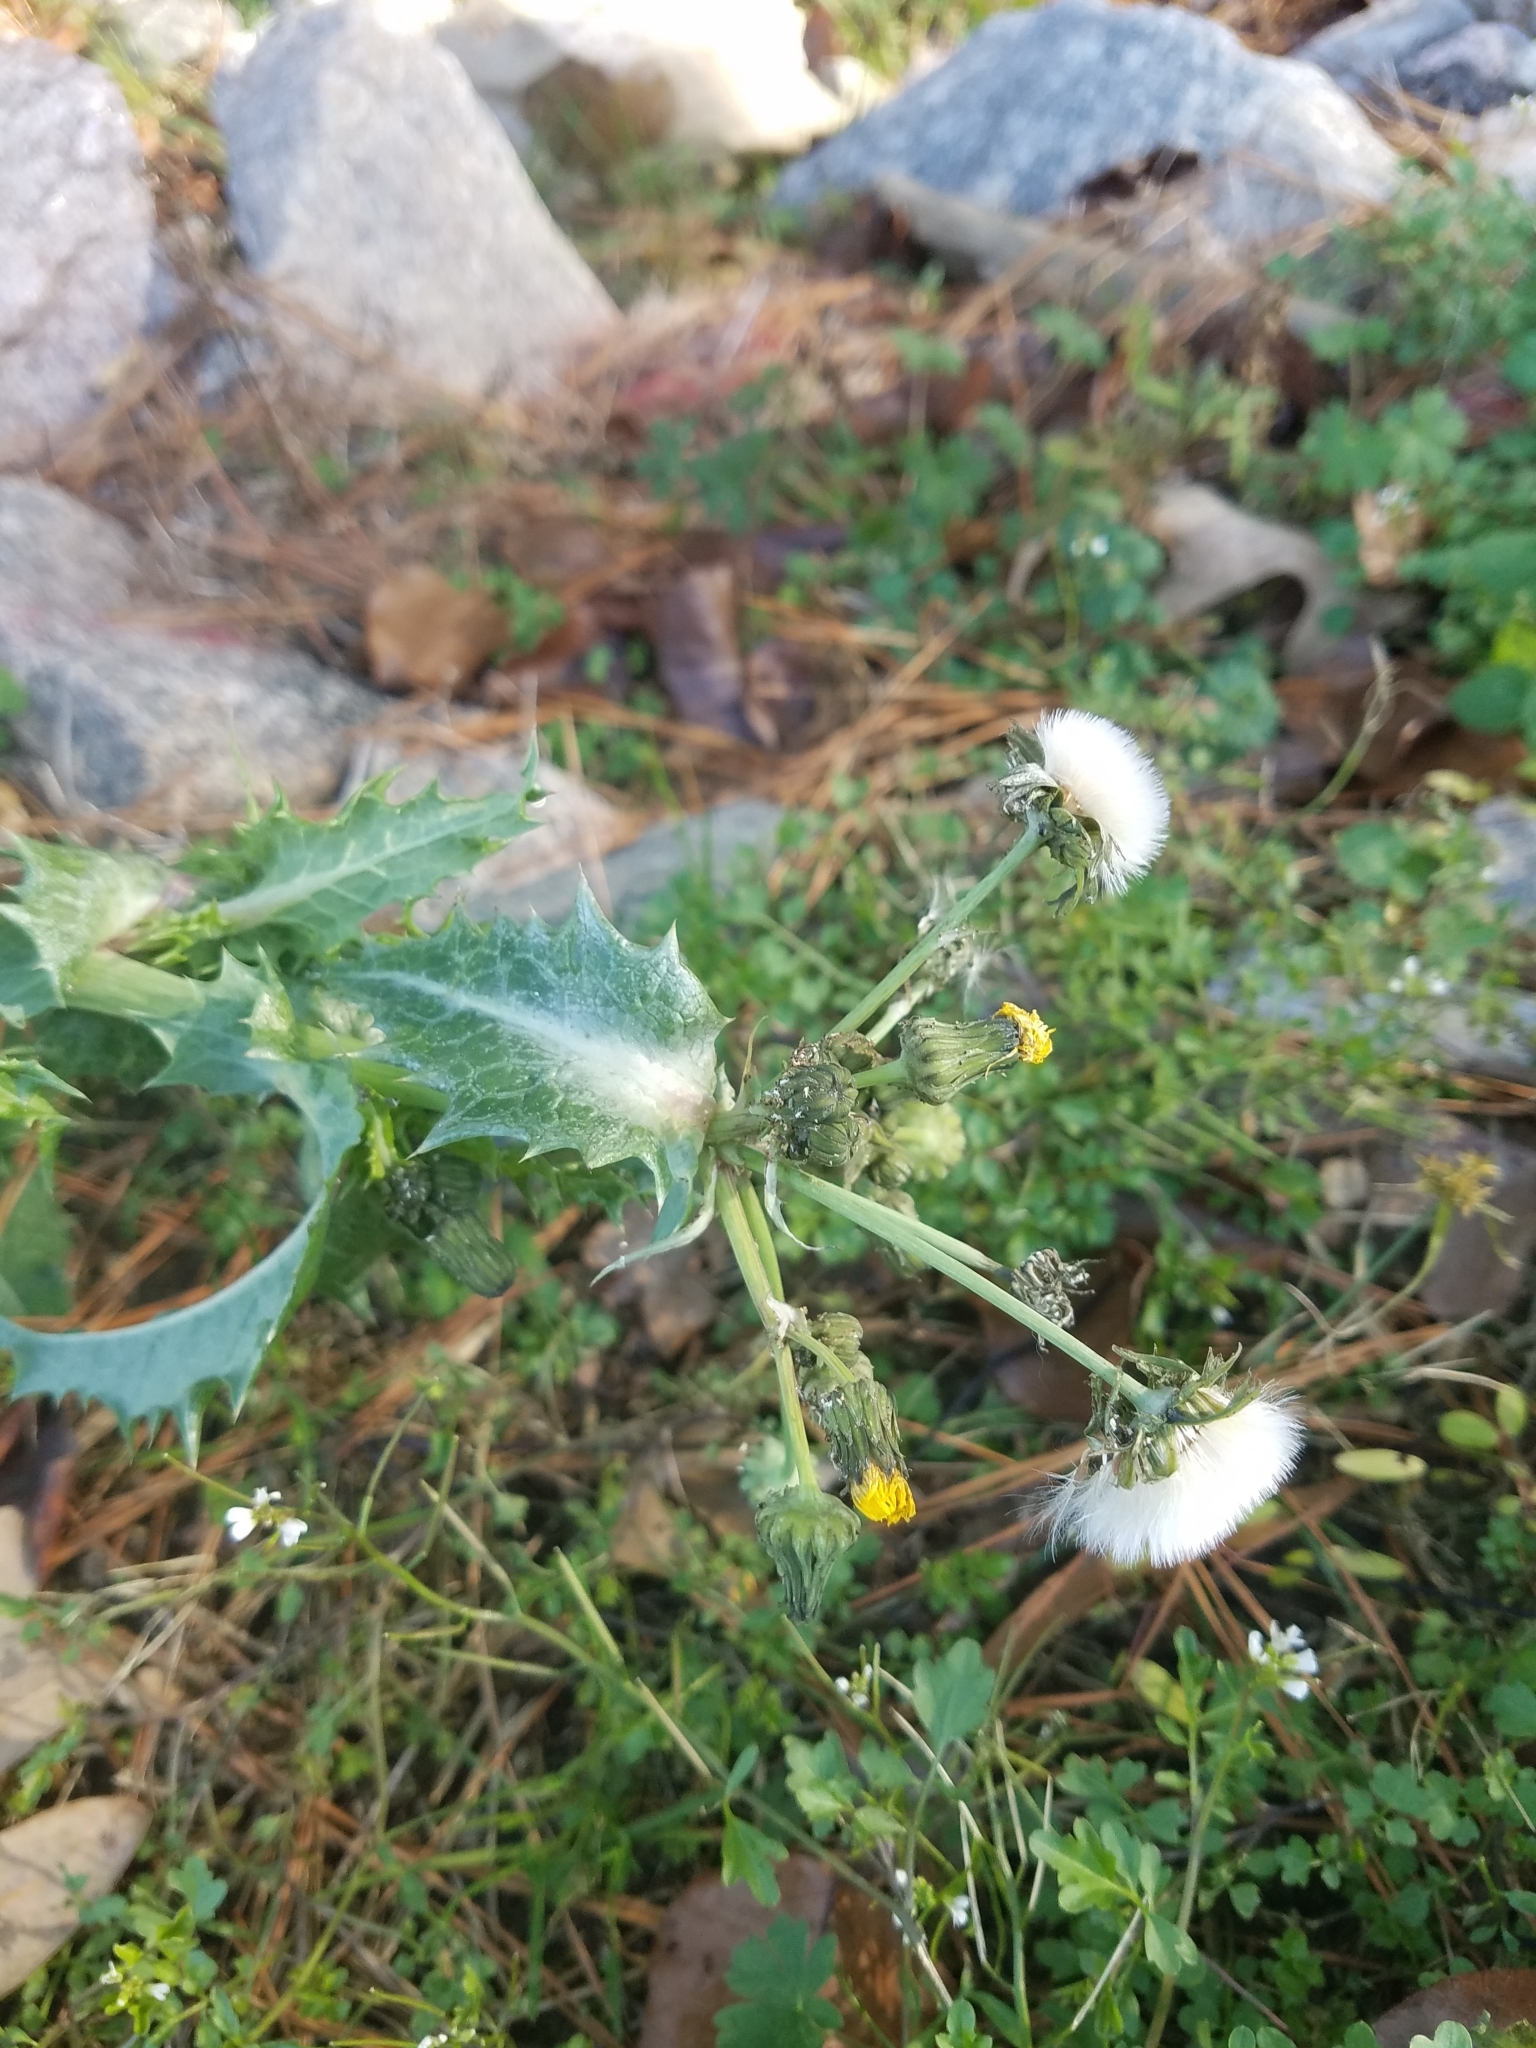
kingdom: Plantae
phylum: Tracheophyta
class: Magnoliopsida
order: Asterales
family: Asteraceae
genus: Sonchus
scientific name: Sonchus asper
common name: Prickly sow-thistle
